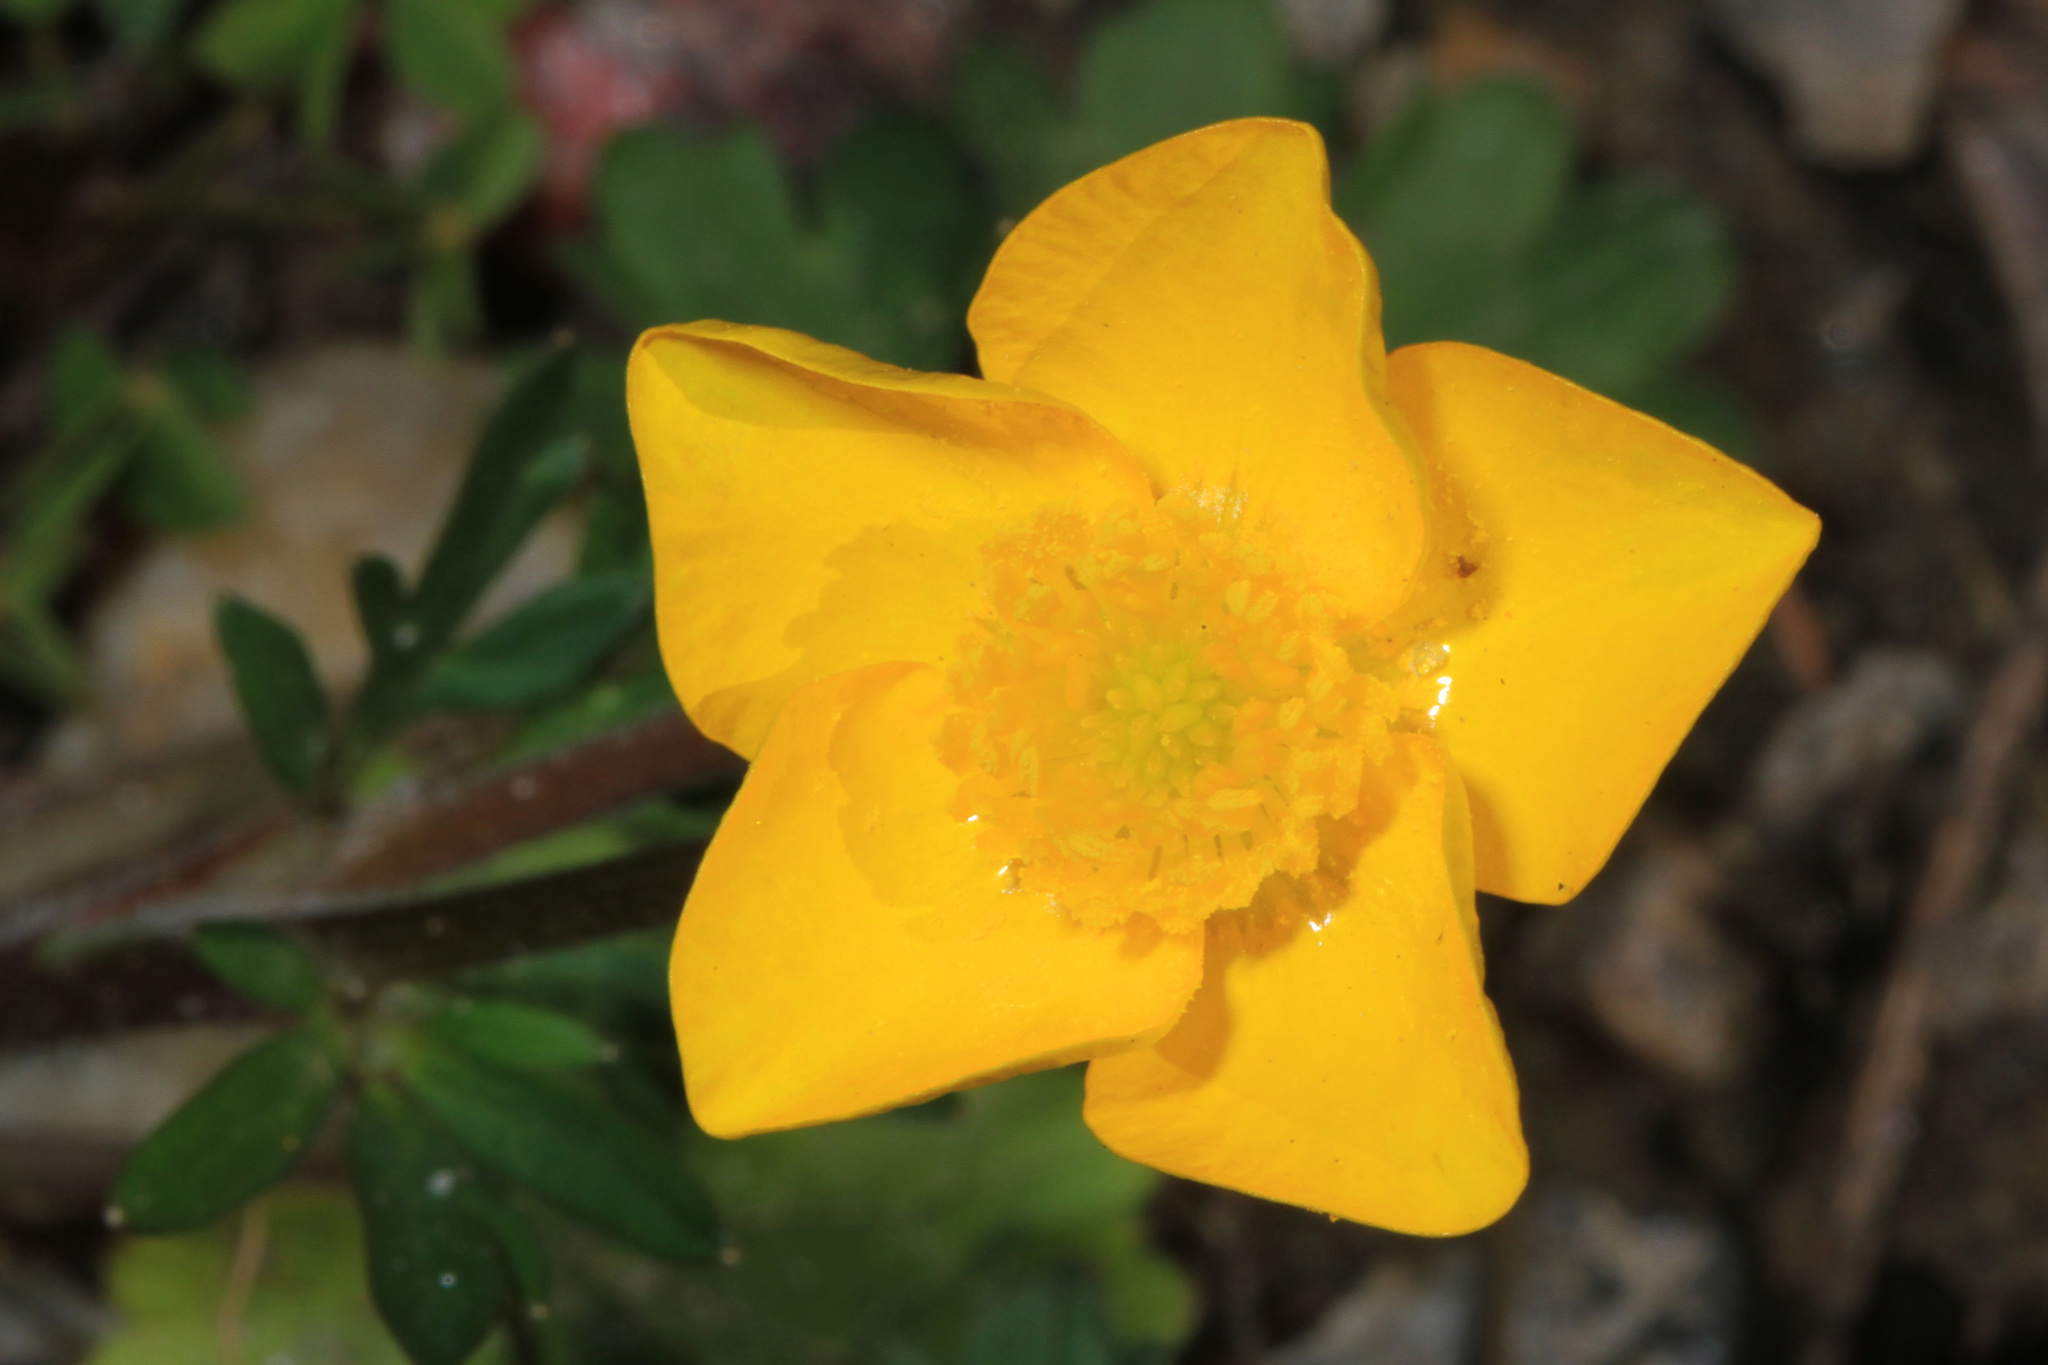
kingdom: Plantae
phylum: Tracheophyta
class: Magnoliopsida
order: Ranunculales
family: Ranunculaceae
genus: Ranunculus
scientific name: Ranunculus bulbosus
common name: Bulbous buttercup
